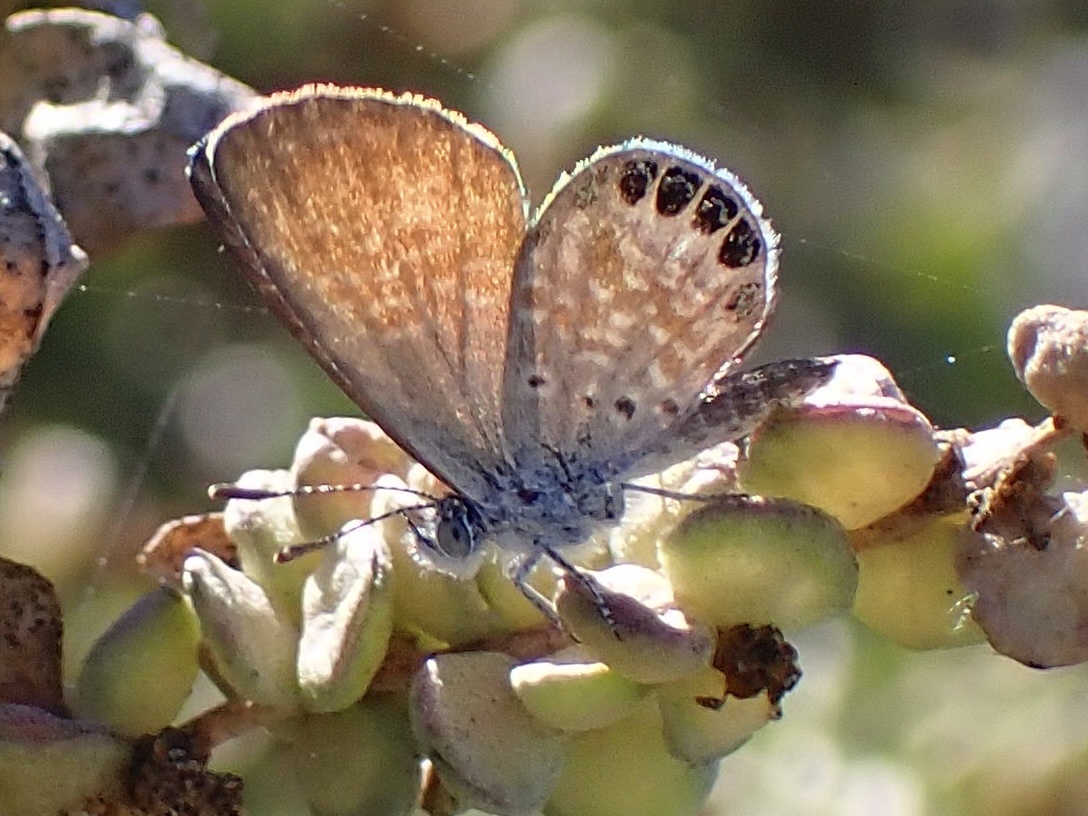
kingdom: Animalia
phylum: Arthropoda
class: Insecta
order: Lepidoptera
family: Lycaenidae
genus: Brephidium
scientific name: Brephidium exilis
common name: Pygmy blue
